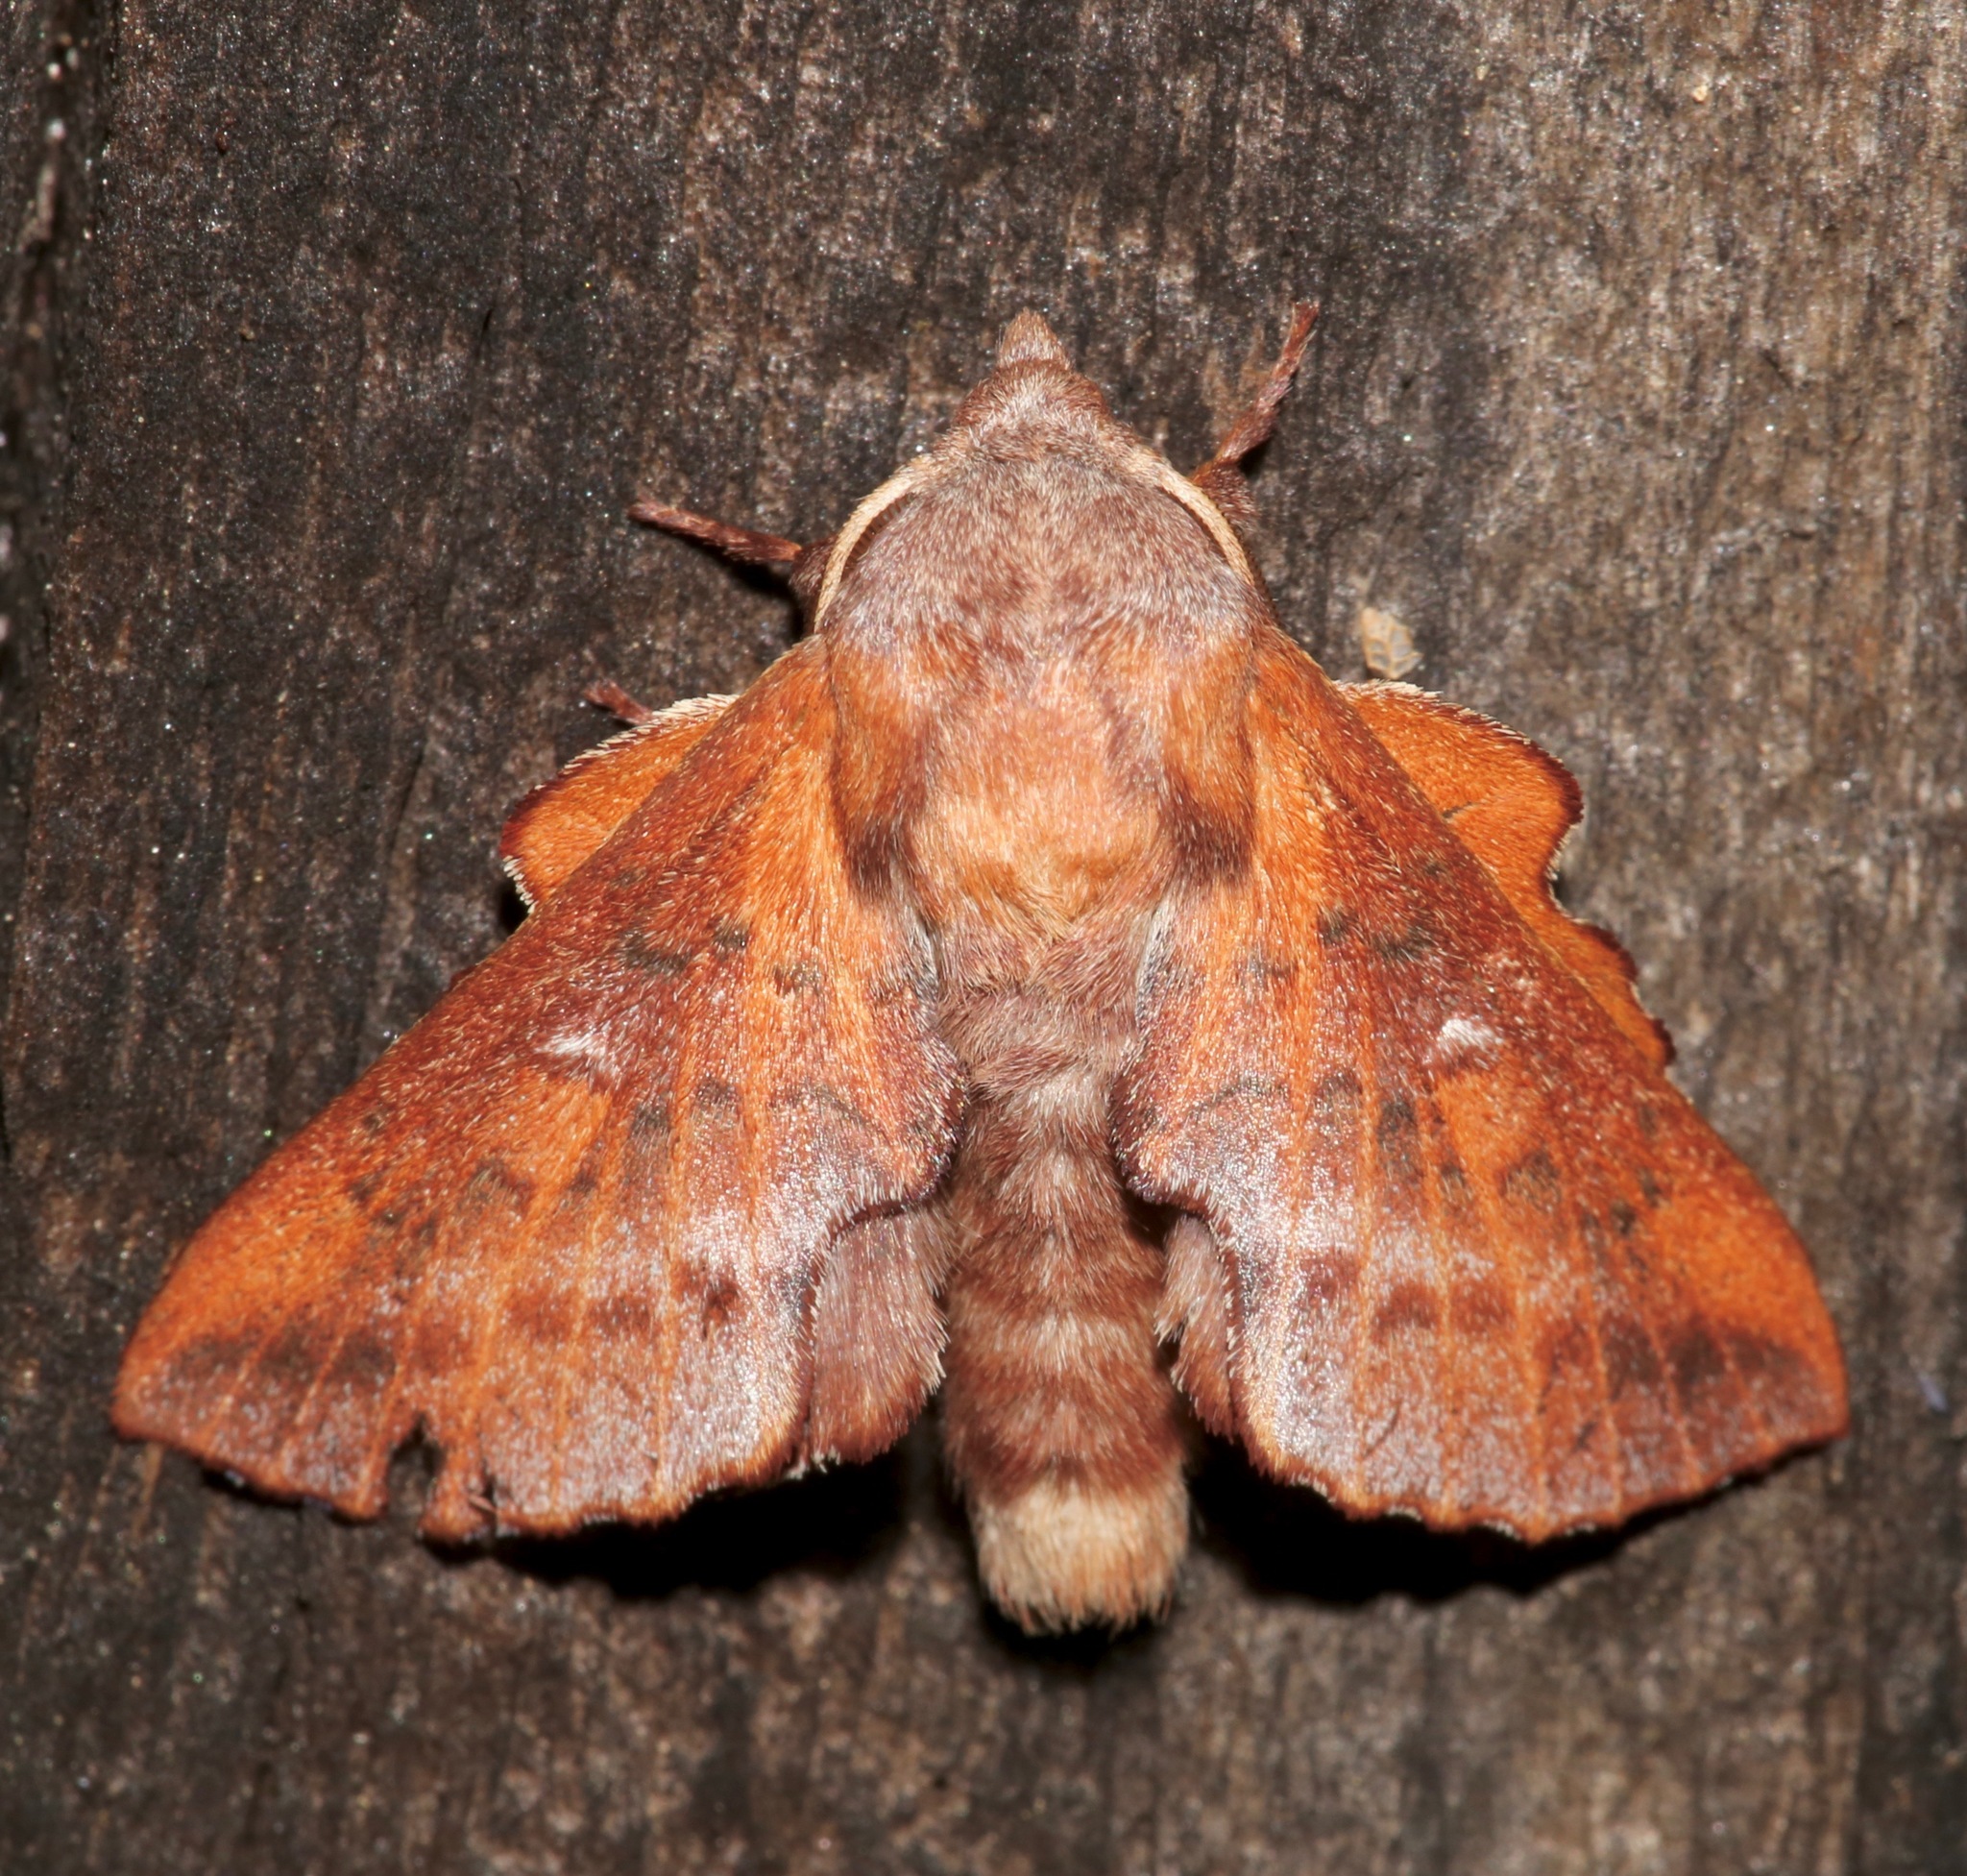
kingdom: Animalia
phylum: Arthropoda
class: Insecta
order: Lepidoptera
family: Lasiocampidae
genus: Phyllodesma
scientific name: Phyllodesma americana
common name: American lappet moth
